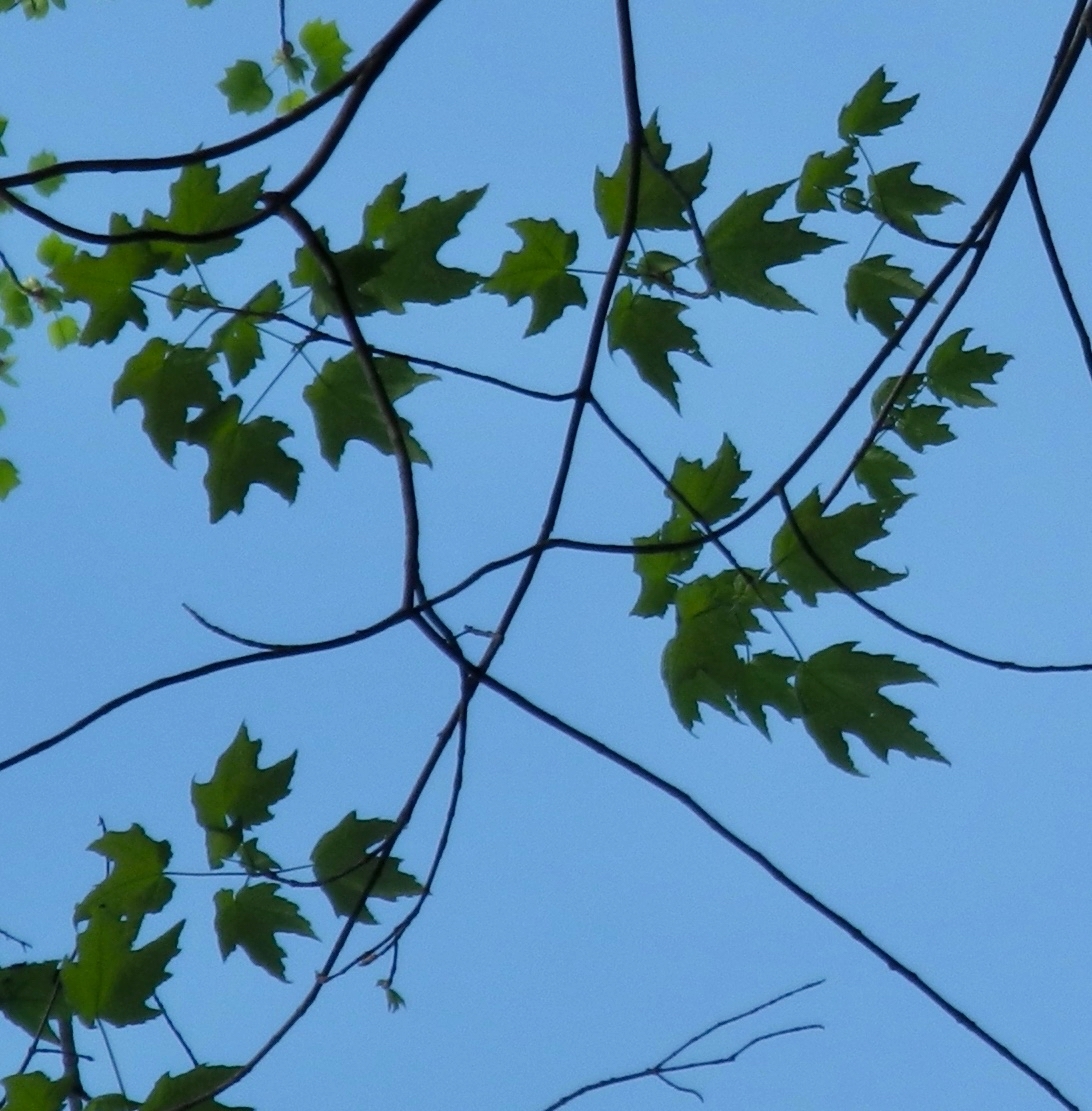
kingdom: Plantae
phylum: Tracheophyta
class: Magnoliopsida
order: Sapindales
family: Sapindaceae
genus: Acer
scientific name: Acer freemanii
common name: Freeman maple
